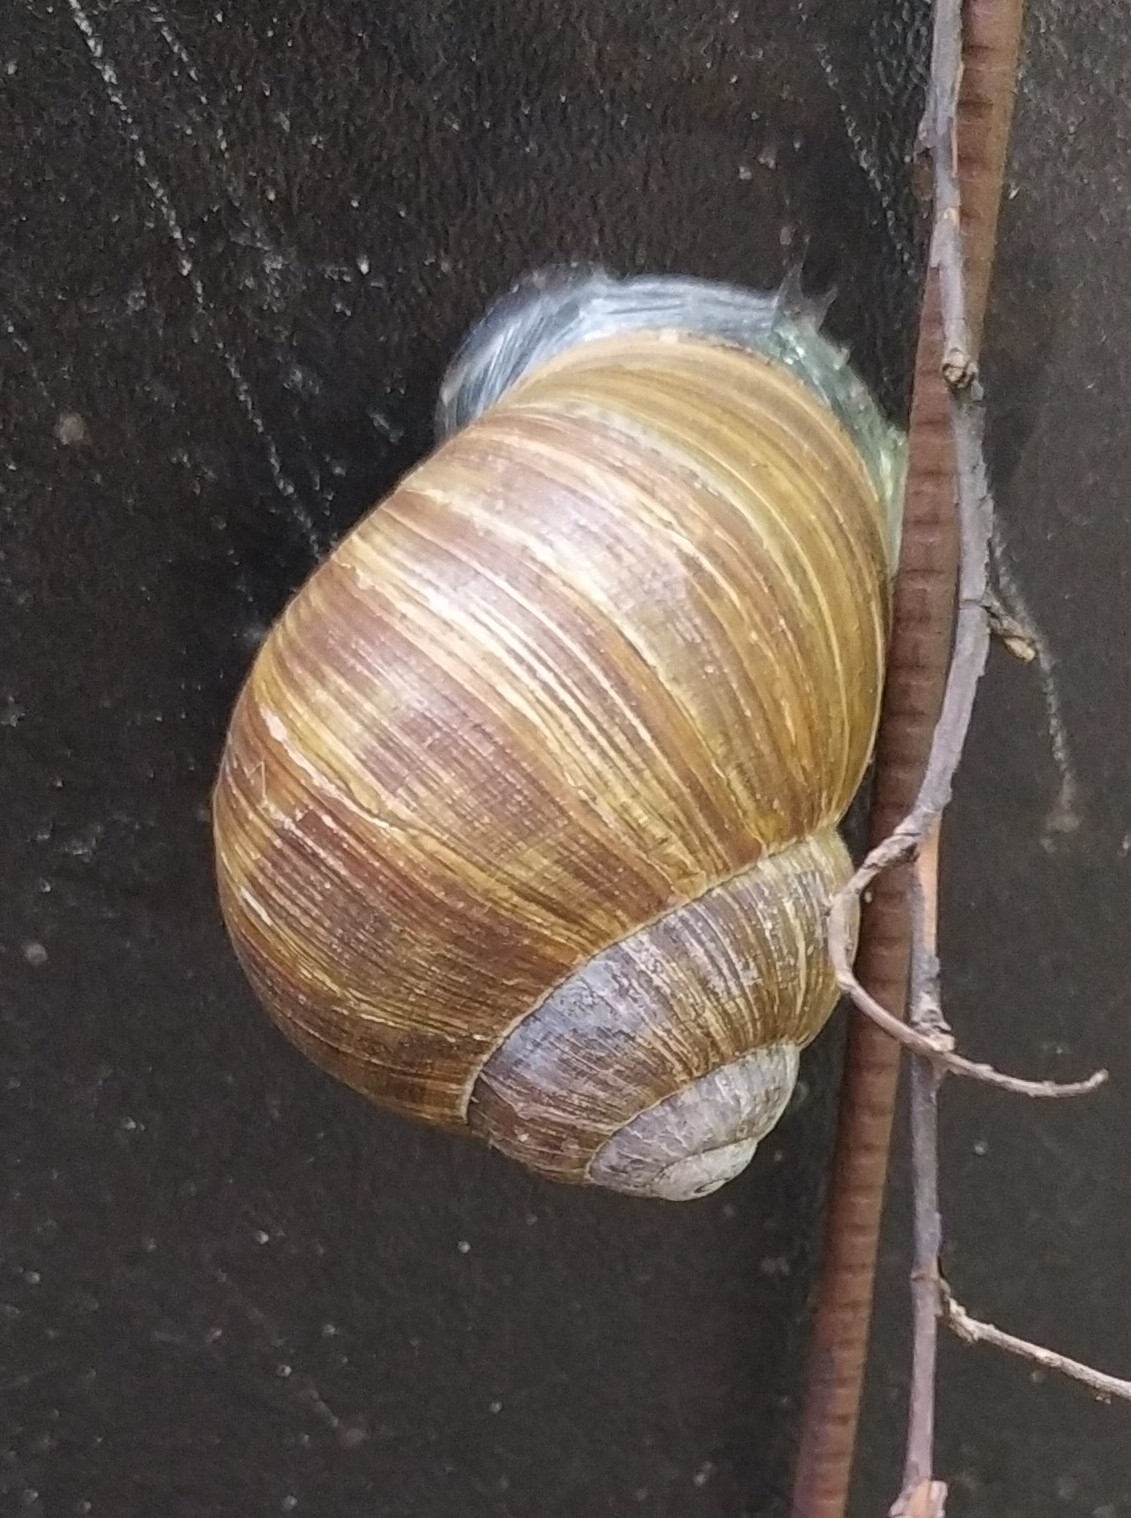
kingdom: Animalia
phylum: Mollusca
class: Gastropoda
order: Stylommatophora
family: Helicidae
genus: Helix
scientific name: Helix pomatia
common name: Roman snail
